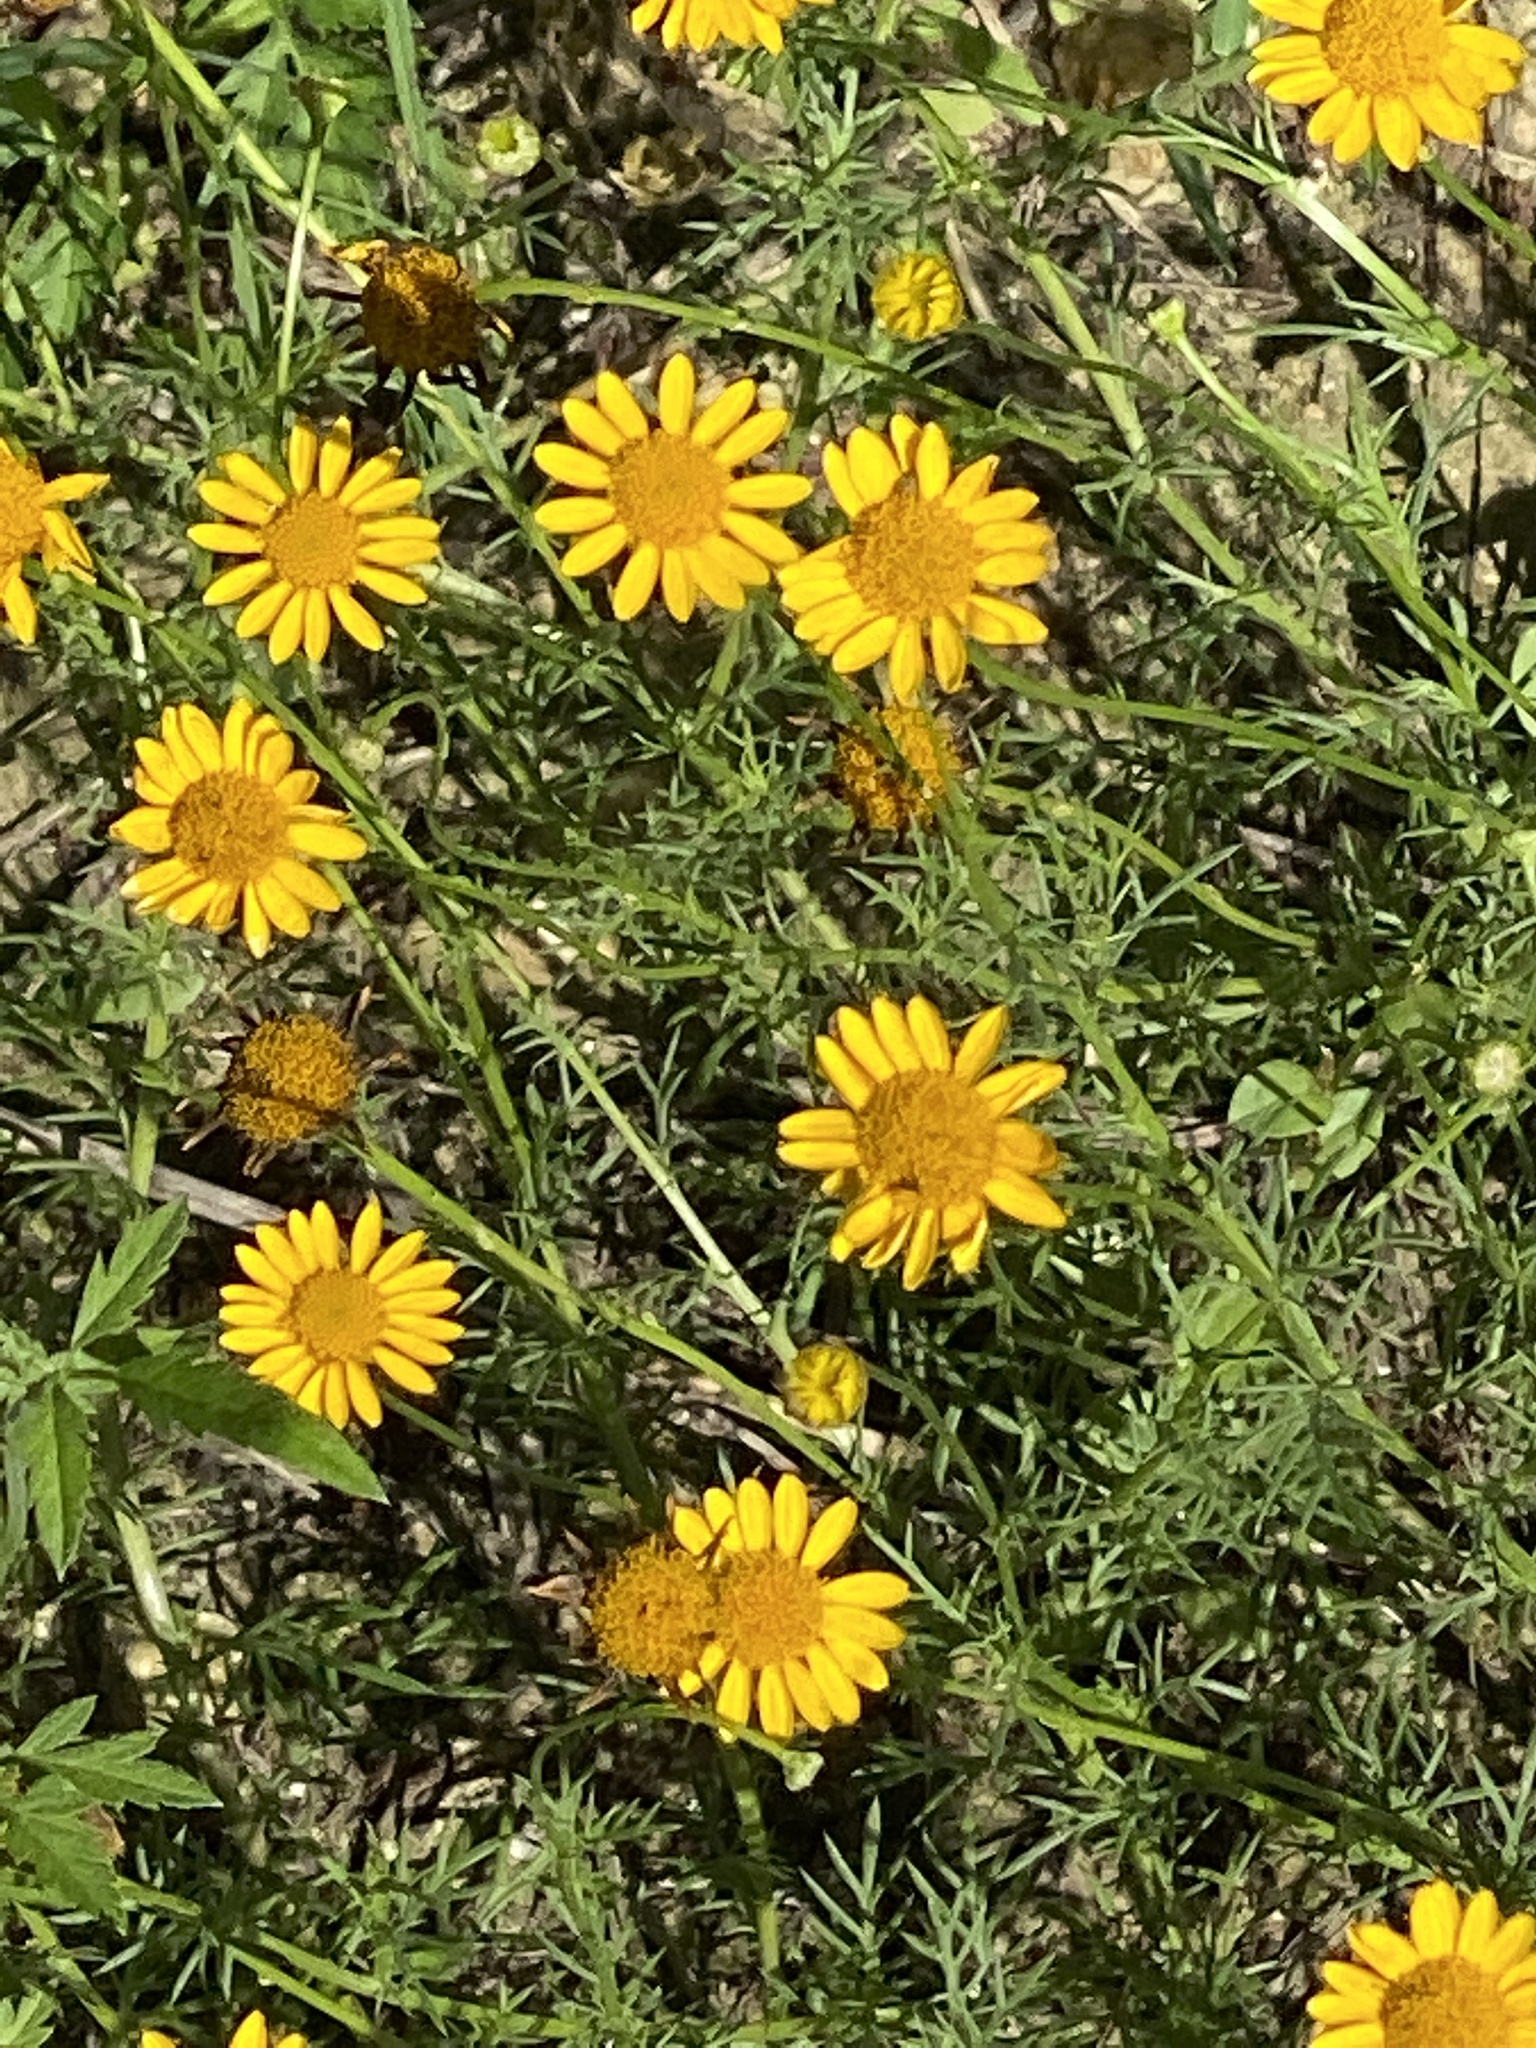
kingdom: Plantae
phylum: Tracheophyta
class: Magnoliopsida
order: Asterales
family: Asteraceae
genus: Thymophylla
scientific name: Thymophylla pentachaeta
